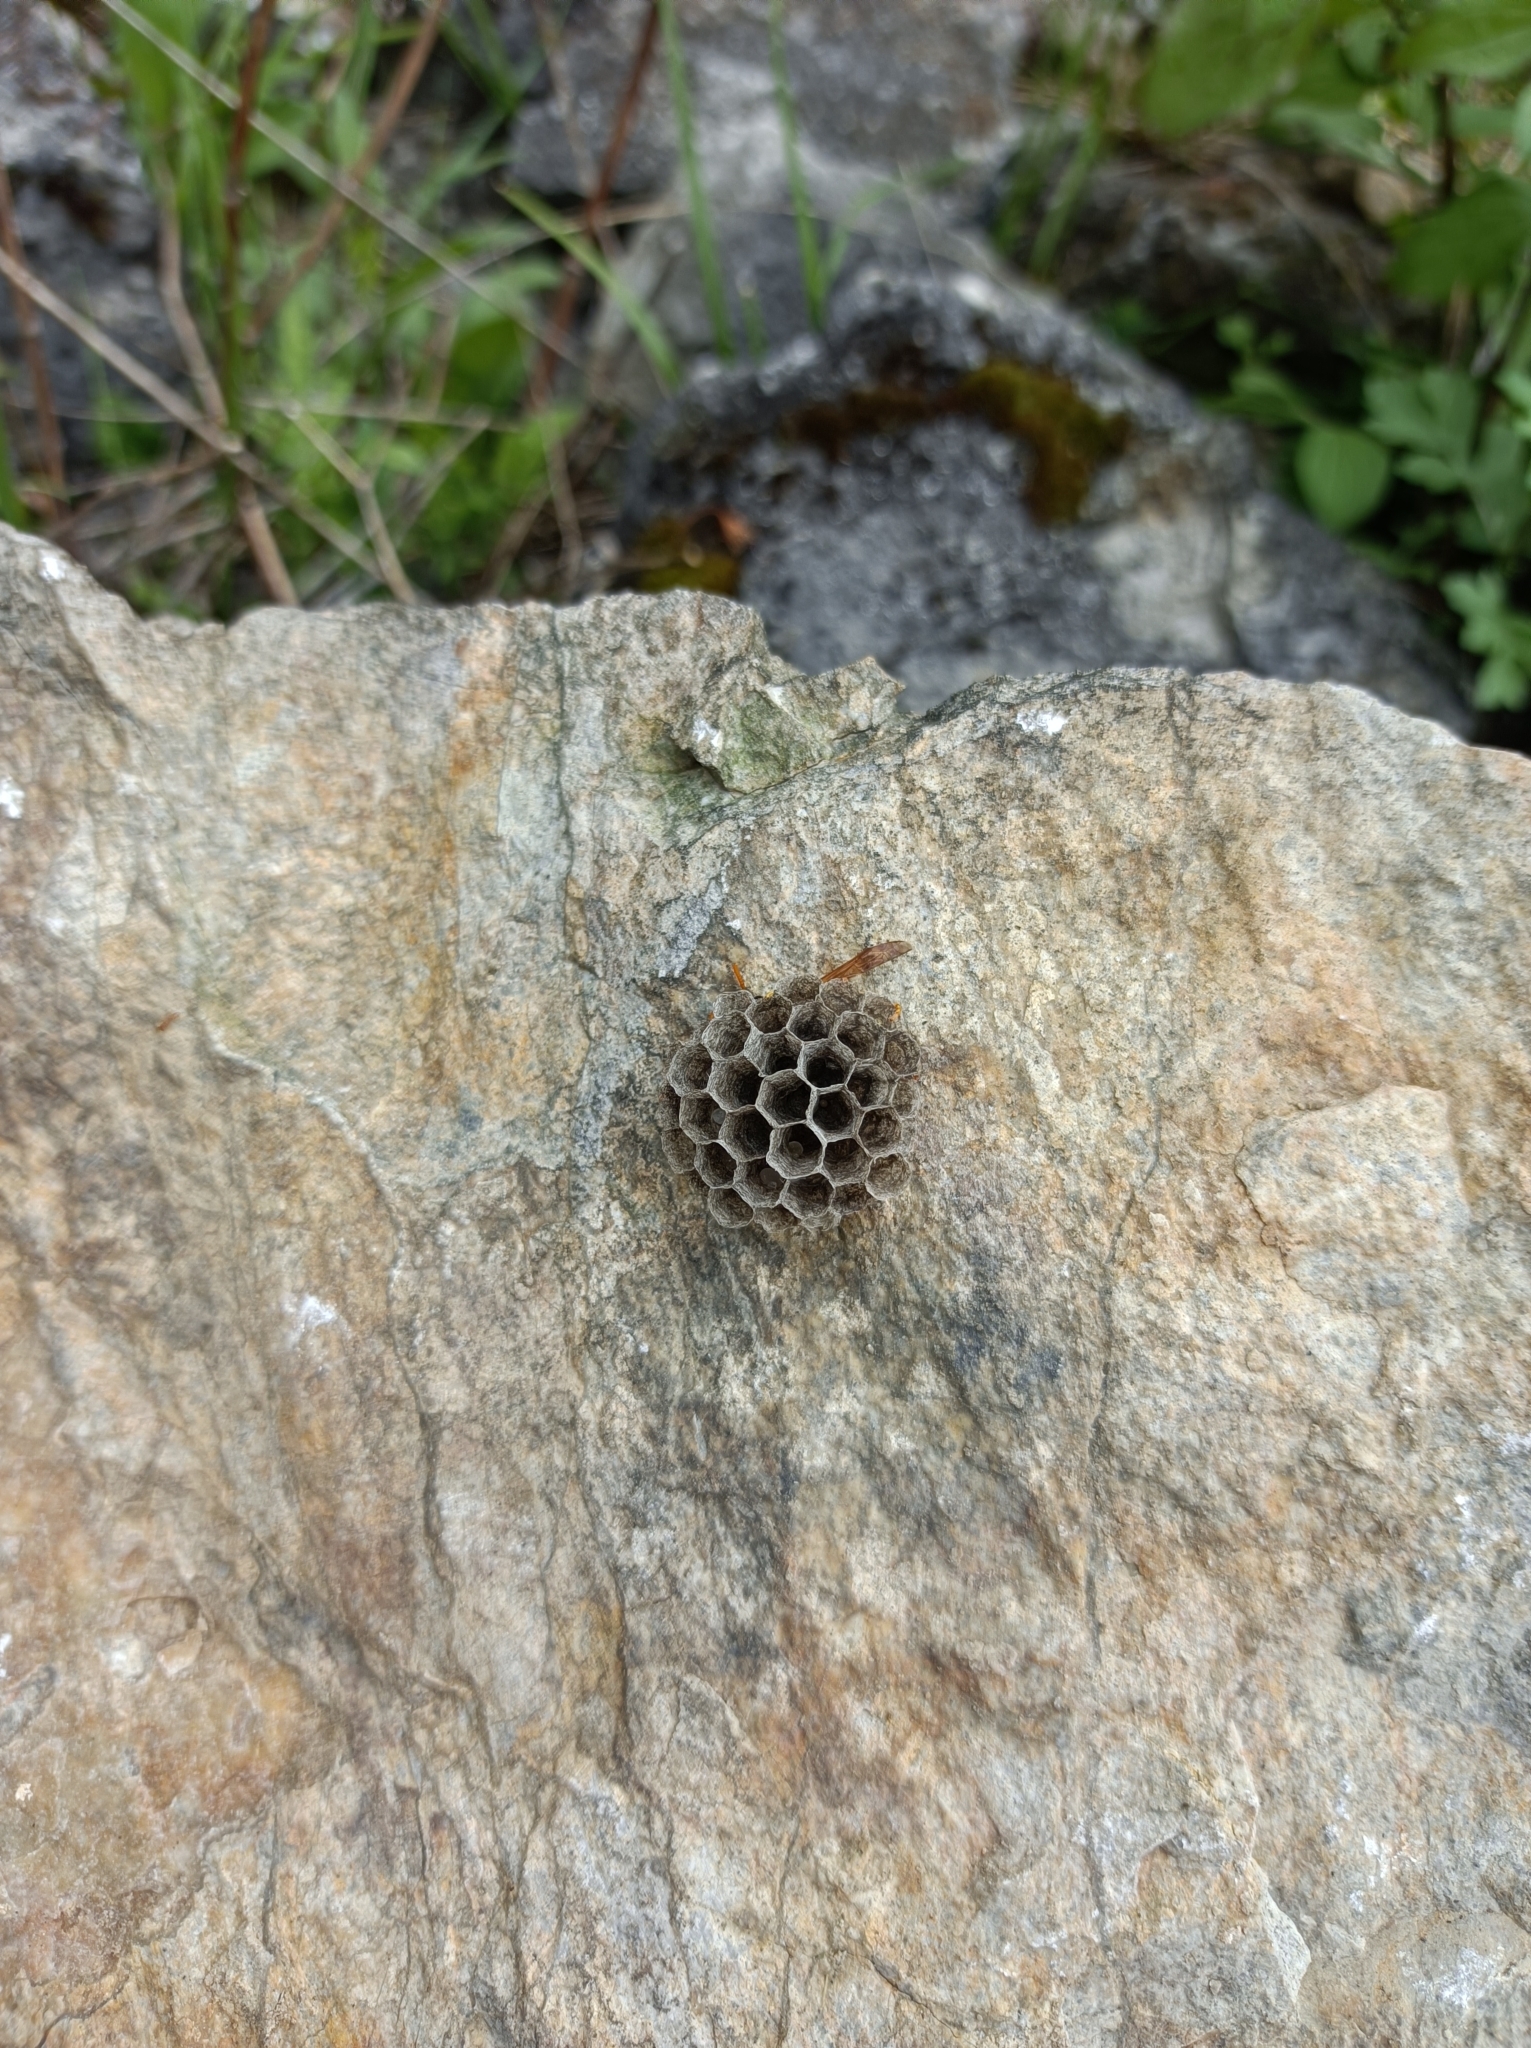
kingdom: Animalia
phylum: Arthropoda
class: Insecta
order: Hymenoptera
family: Eumenidae
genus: Polistes
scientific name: Polistes dominula
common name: Paper wasp
